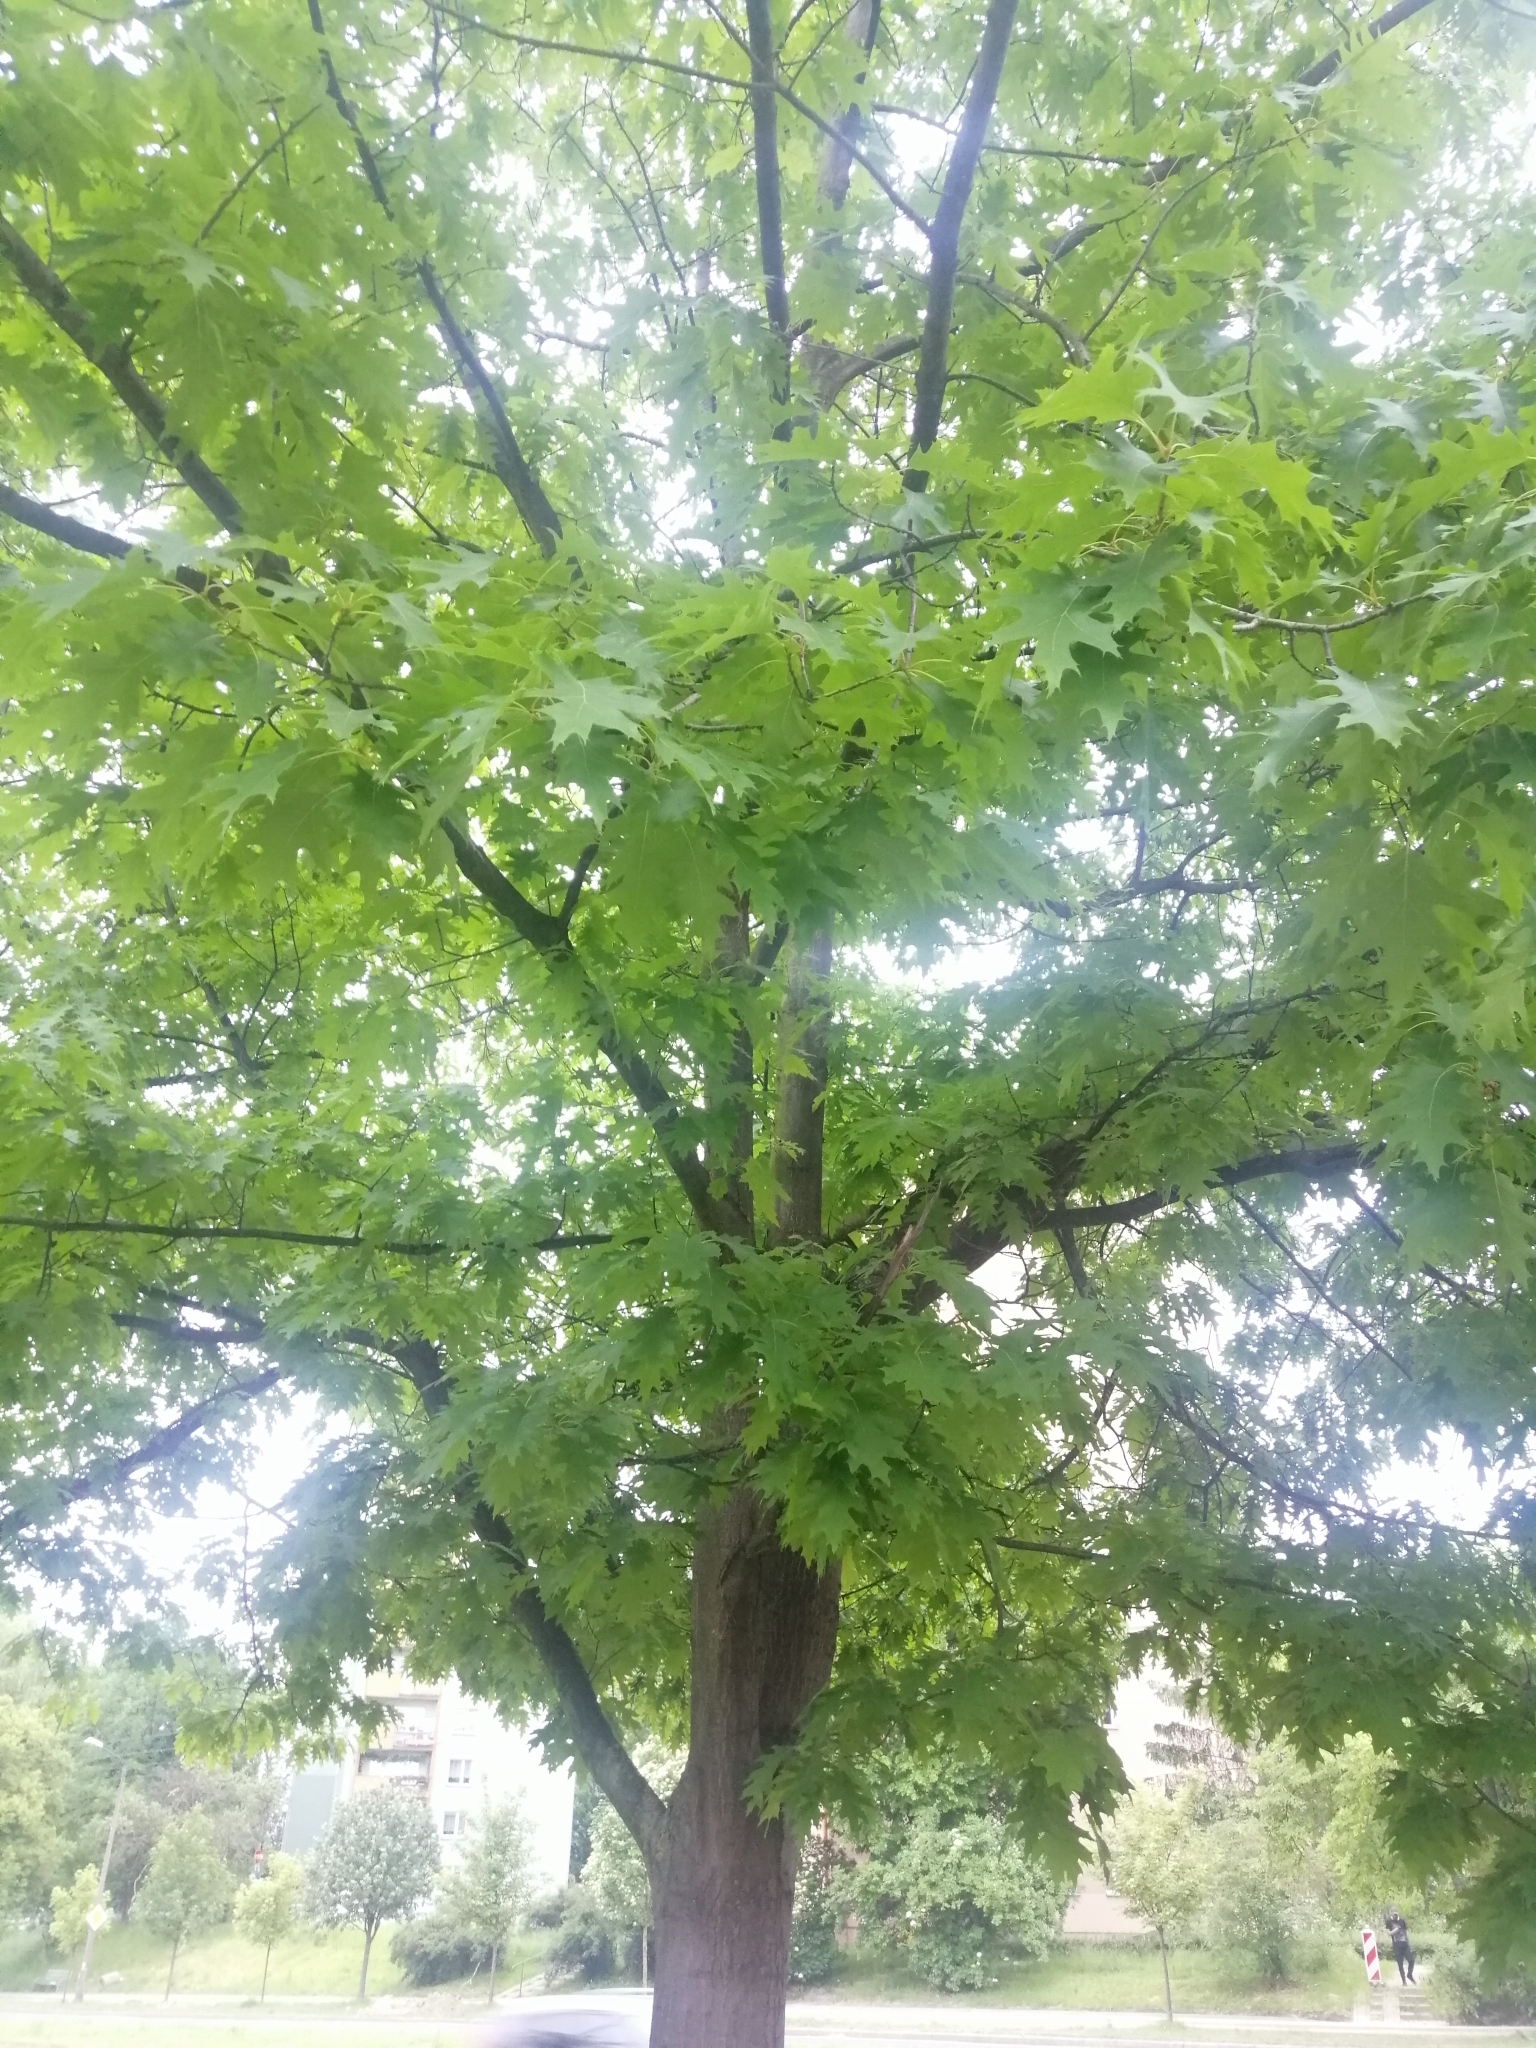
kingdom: Plantae
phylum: Tracheophyta
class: Magnoliopsida
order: Fagales
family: Fagaceae
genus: Quercus
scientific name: Quercus rubra
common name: Red oak
